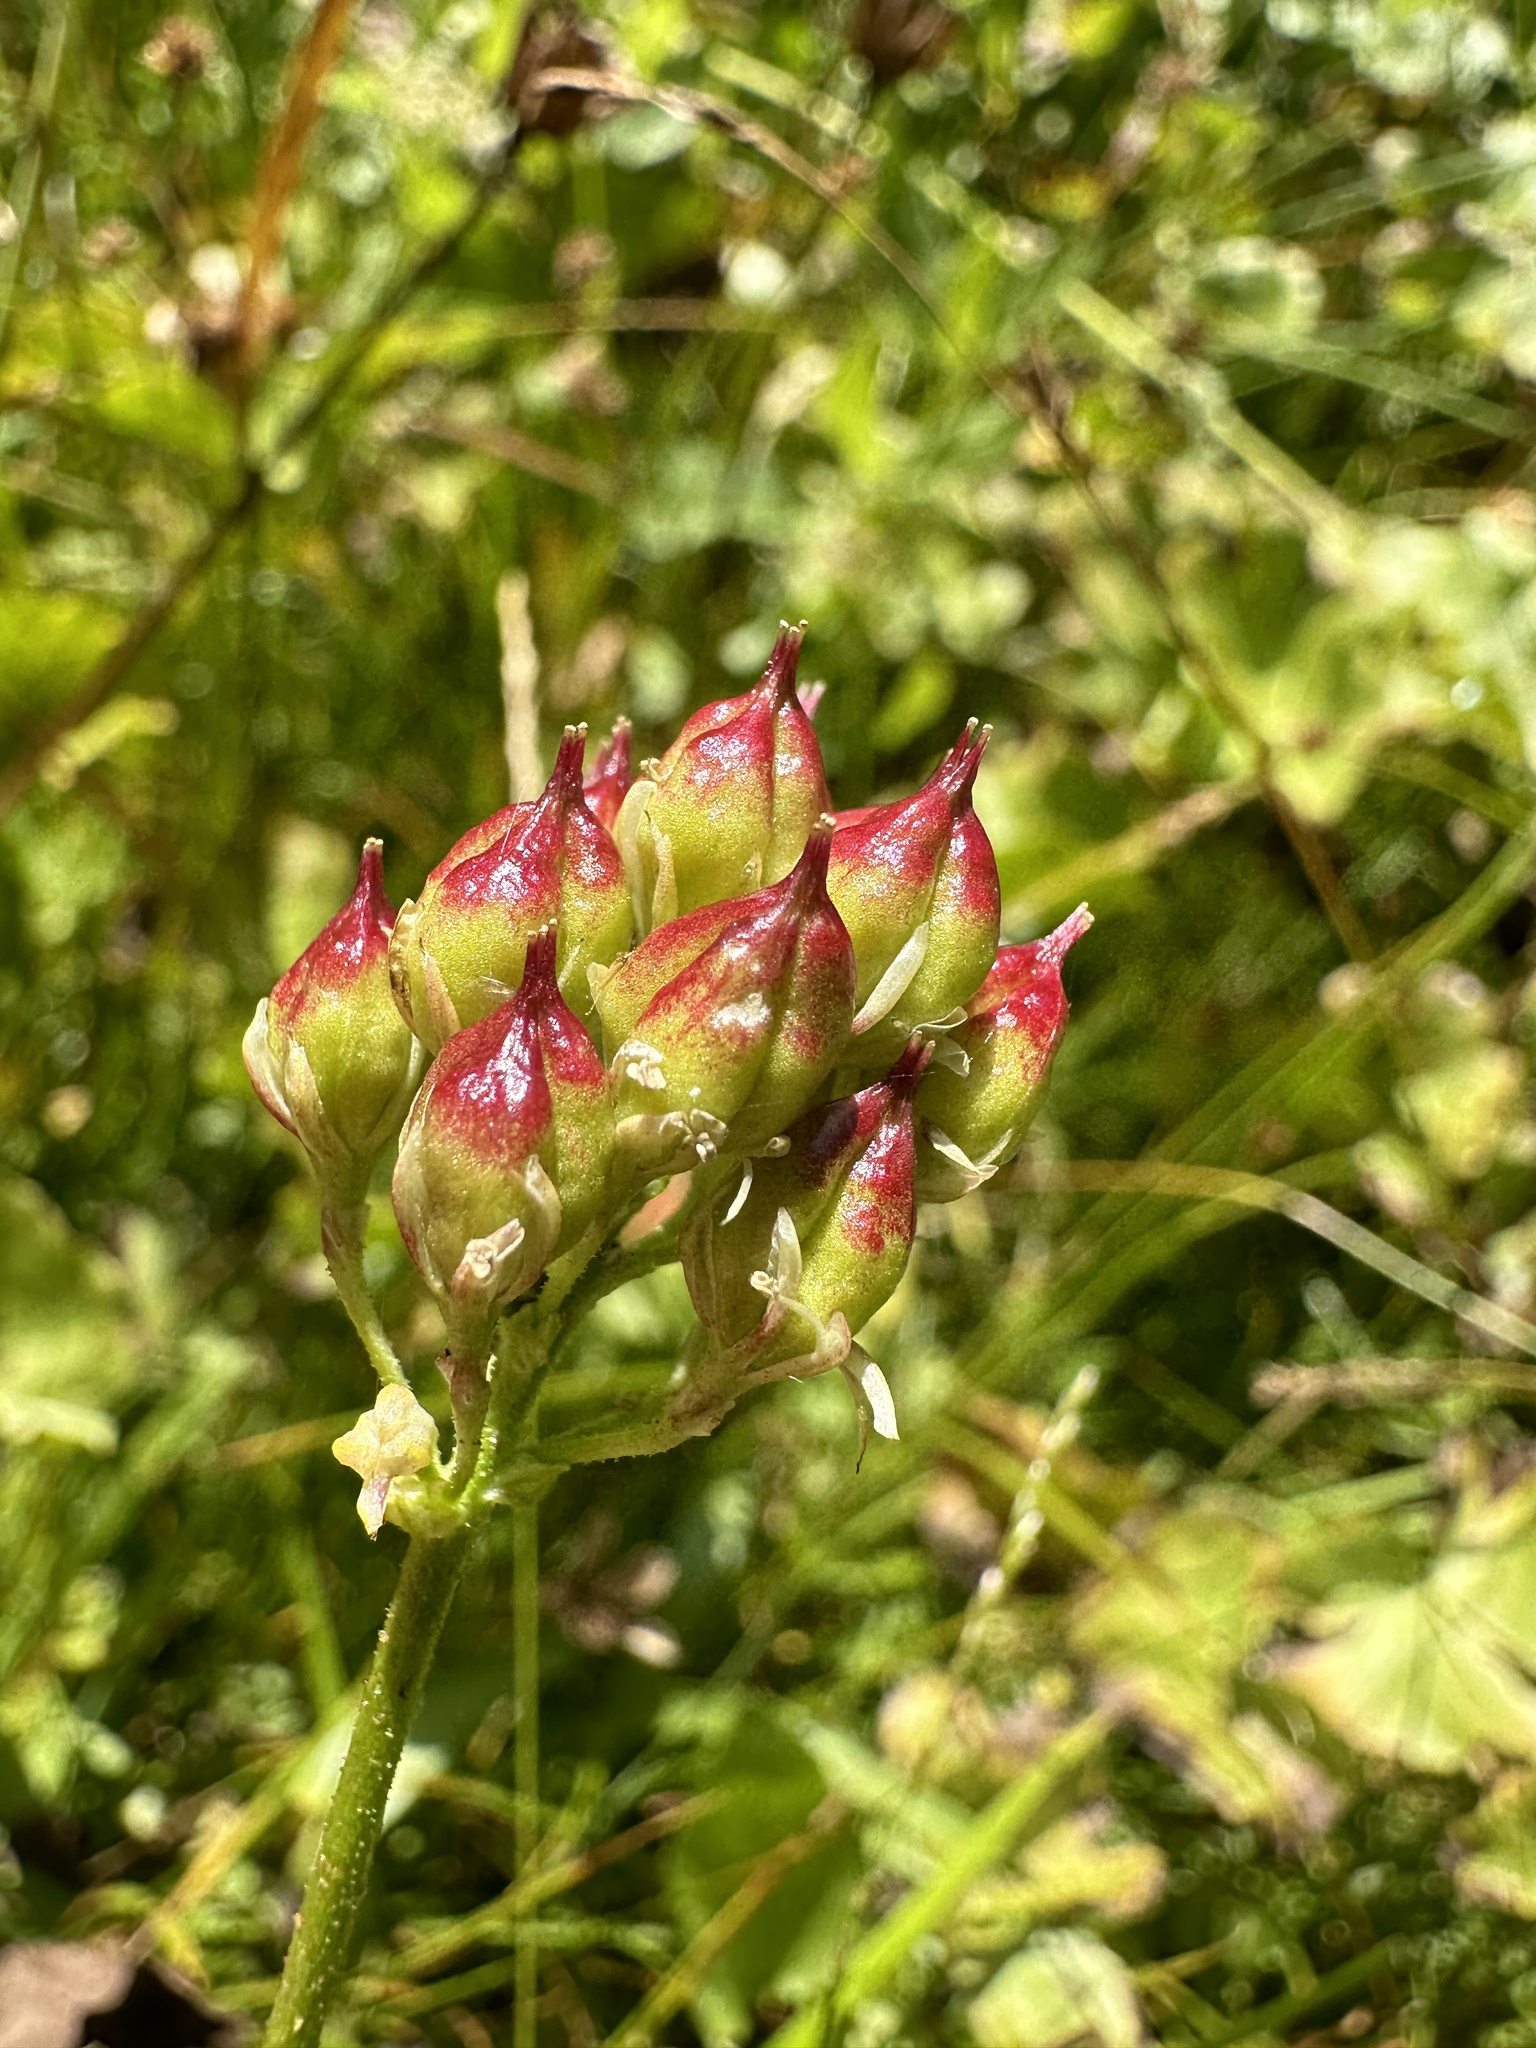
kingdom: Plantae
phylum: Tracheophyta
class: Liliopsida
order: Alismatales
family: Tofieldiaceae
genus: Triantha
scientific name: Triantha occidentalis
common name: Western false asphodel
